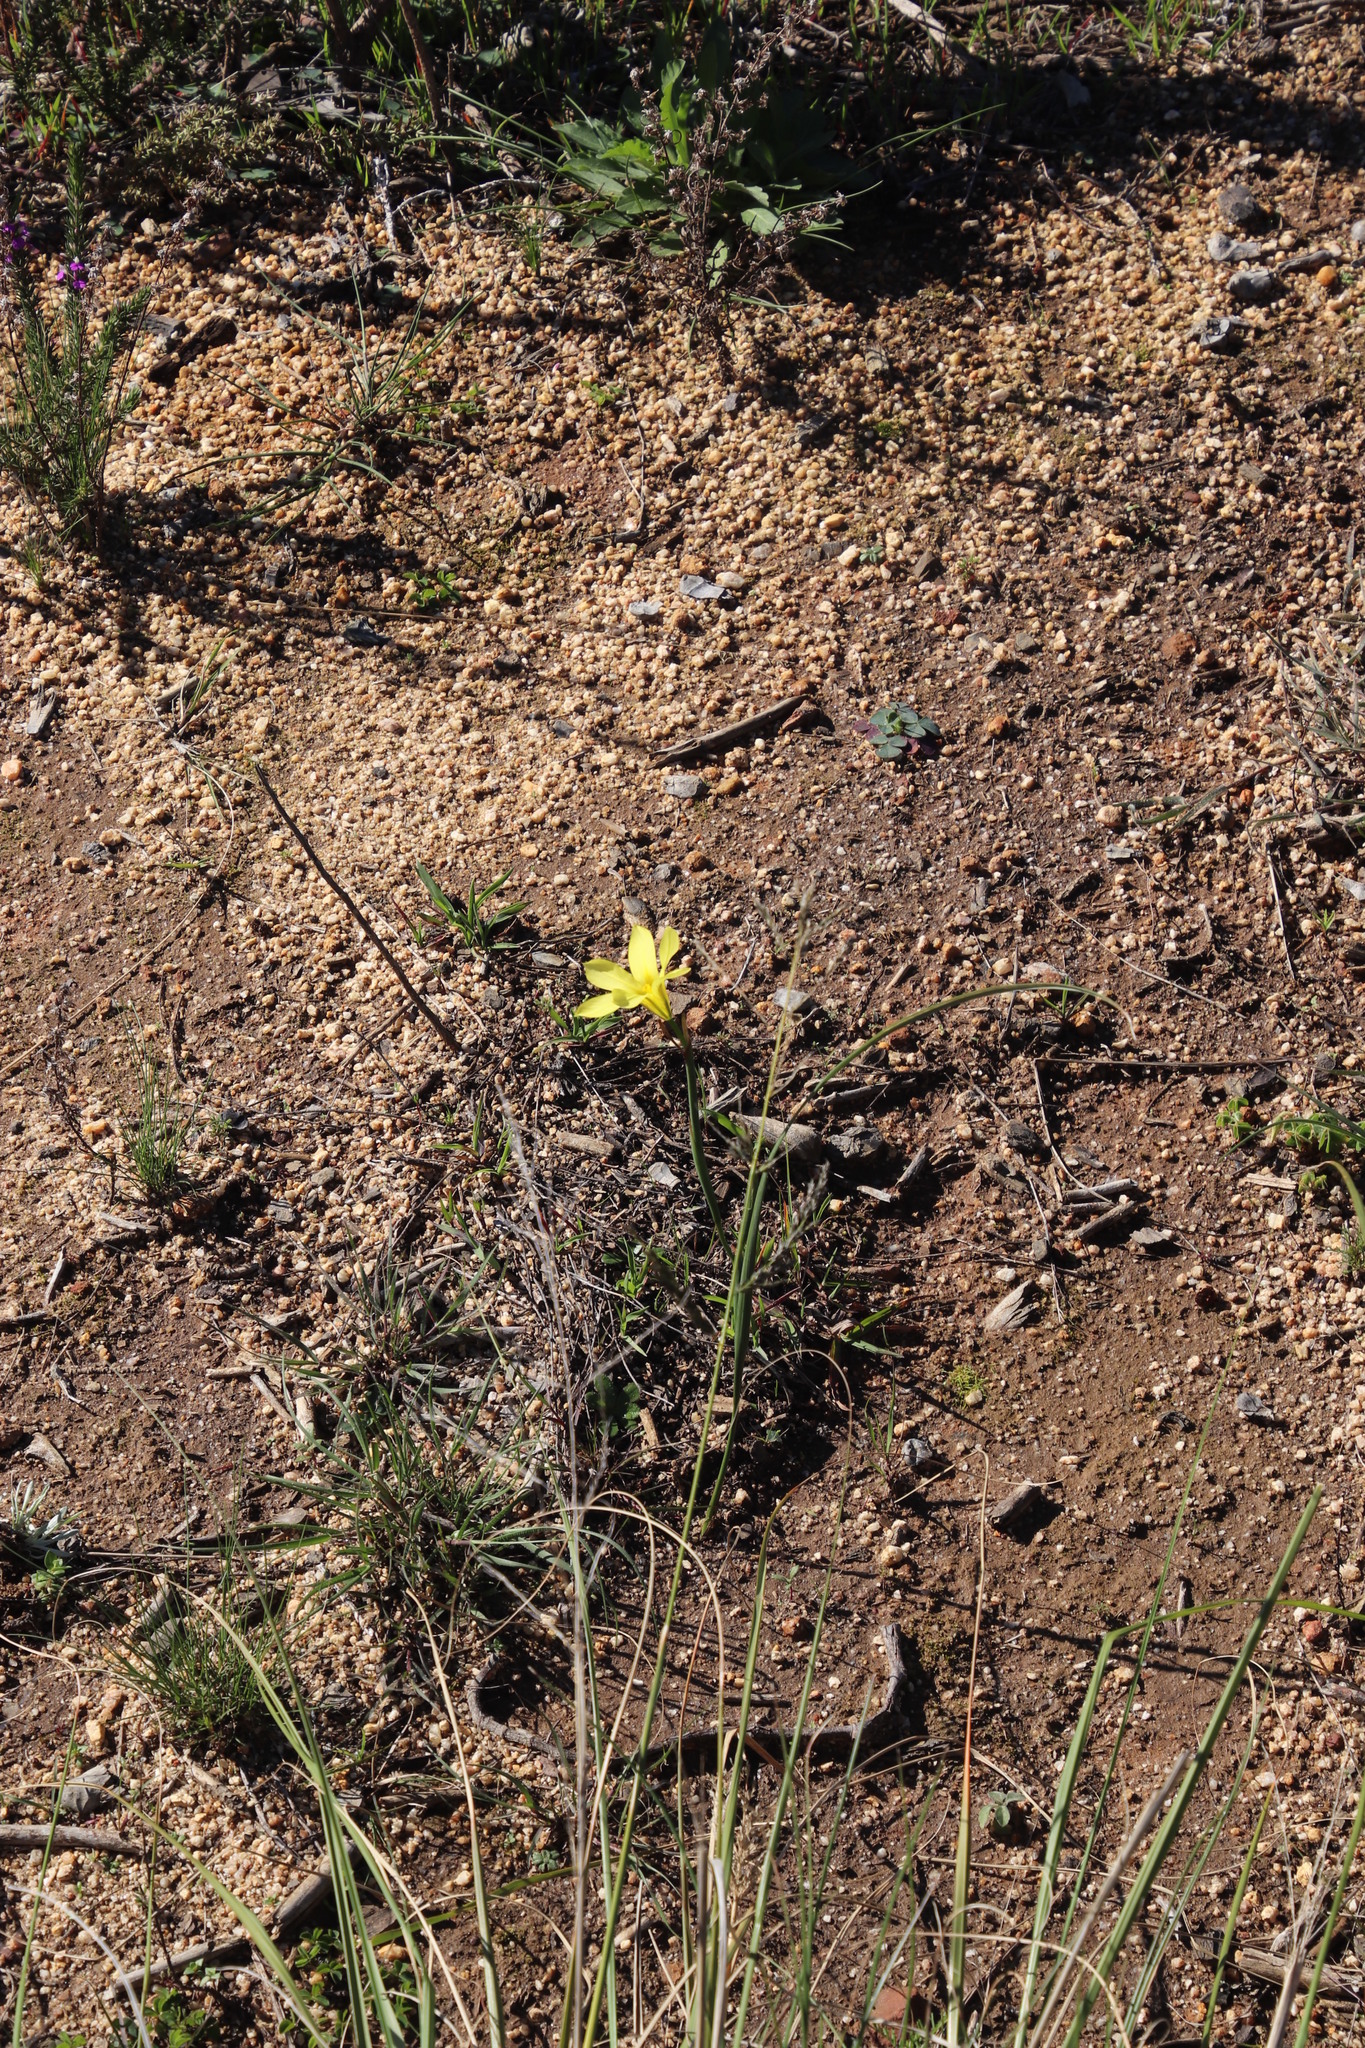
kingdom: Plantae
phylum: Tracheophyta
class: Liliopsida
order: Asparagales
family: Iridaceae
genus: Moraea
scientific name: Moraea collina
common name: Cape-tulip
